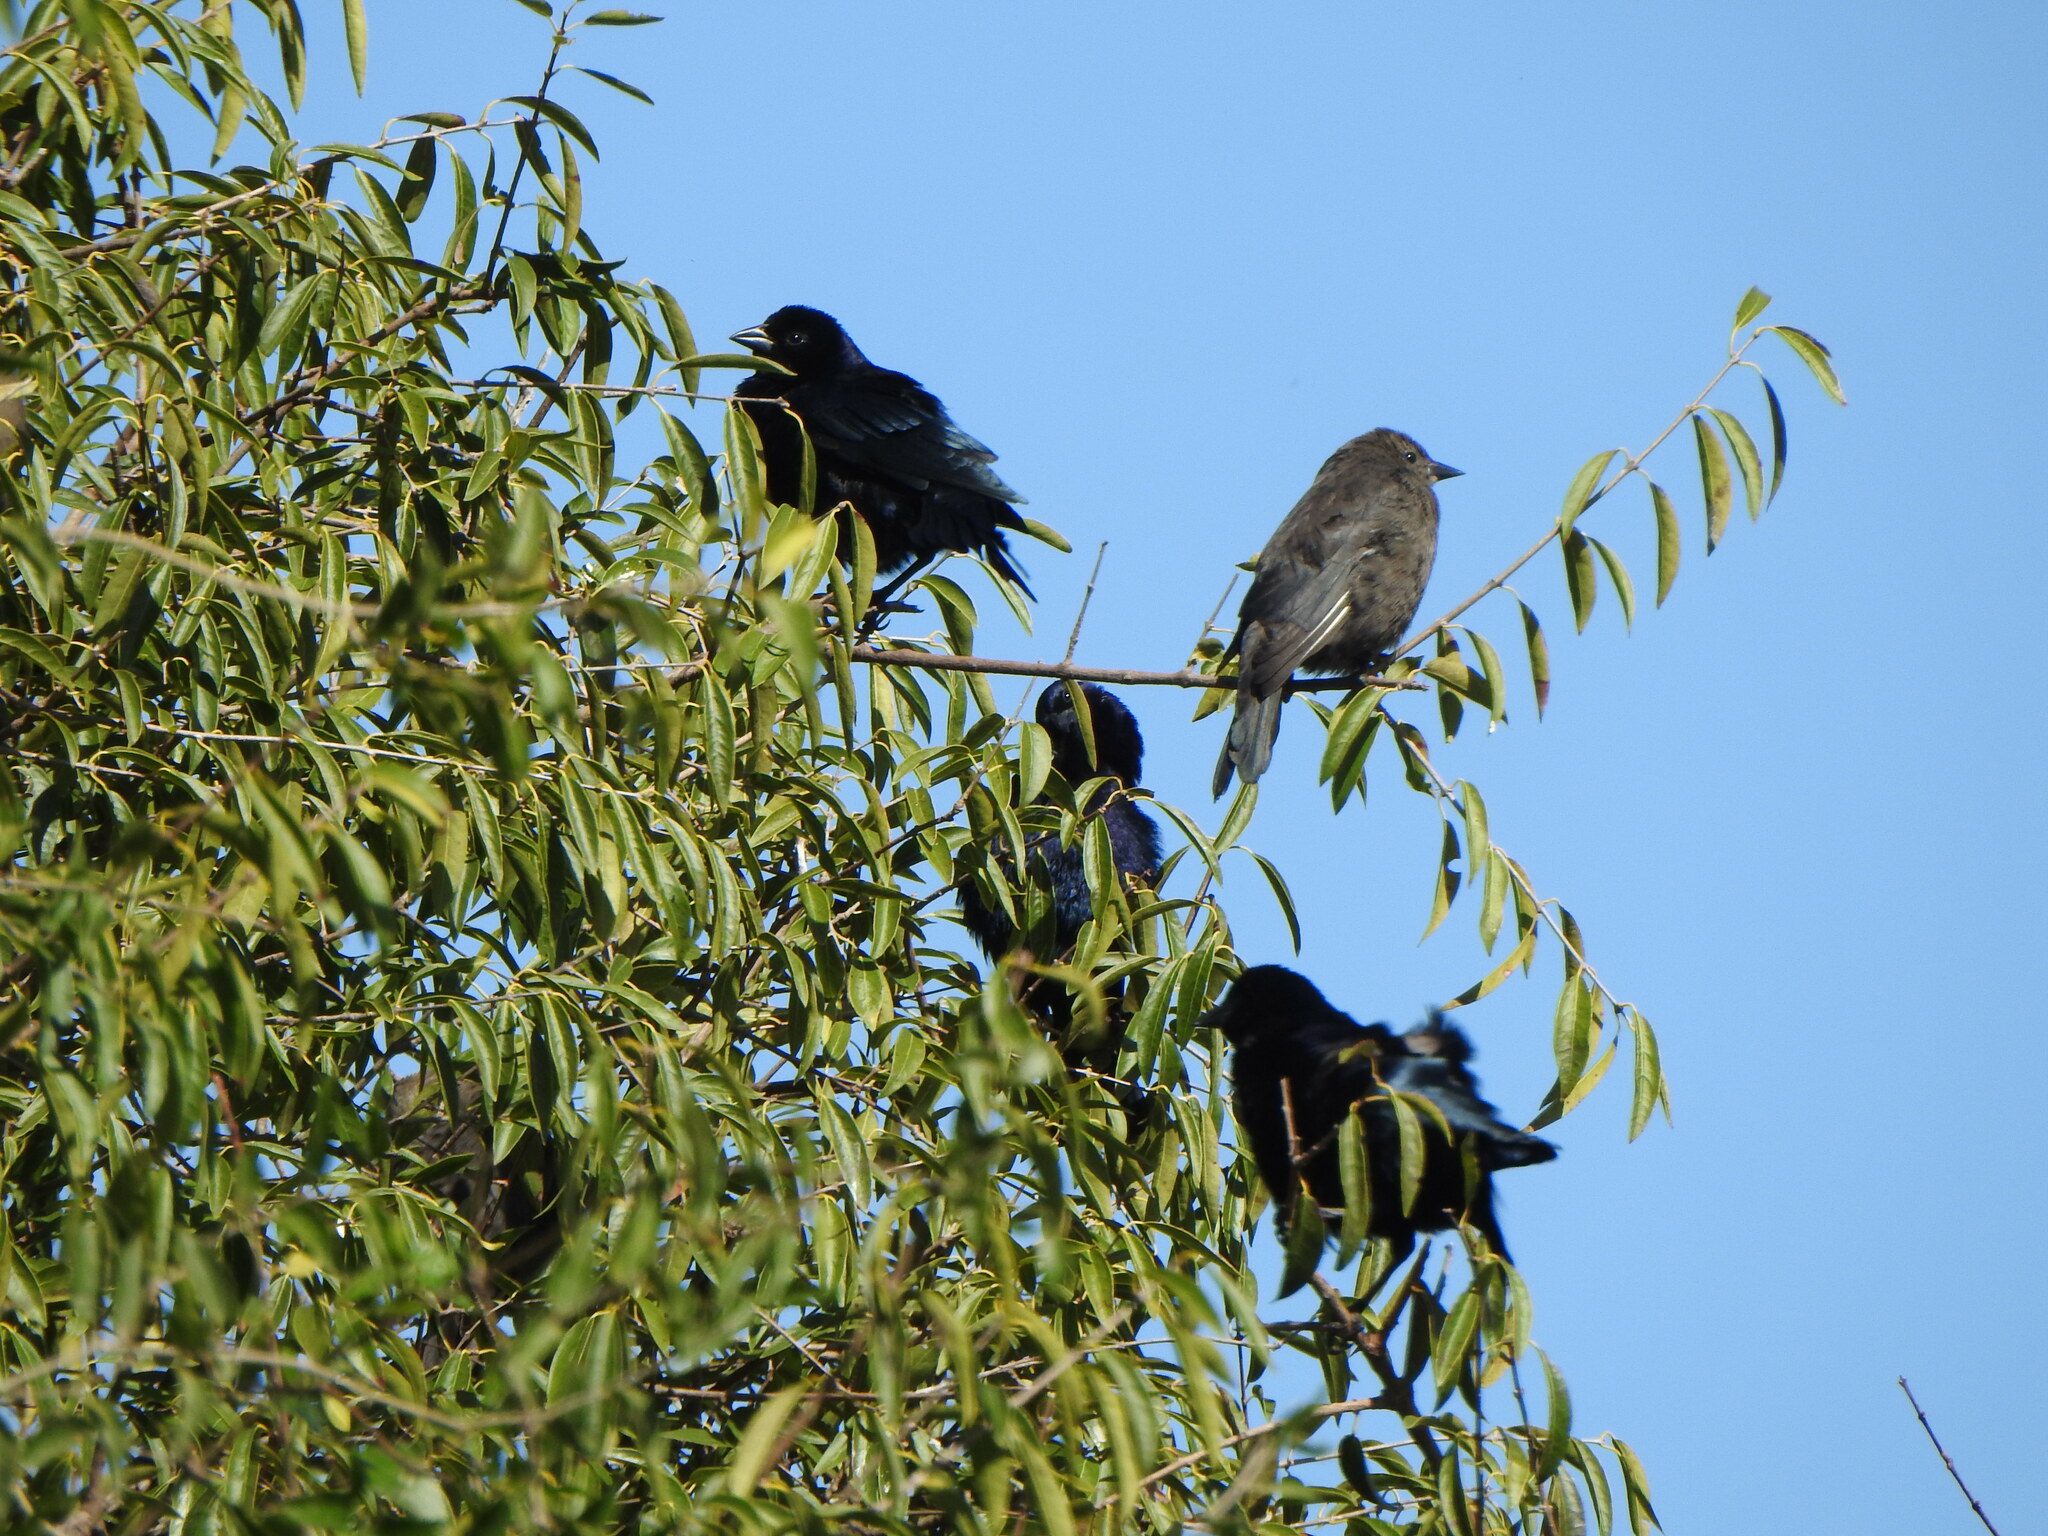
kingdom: Animalia
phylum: Chordata
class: Aves
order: Passeriformes
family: Icteridae
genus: Molothrus
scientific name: Molothrus bonariensis
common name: Shiny cowbird
